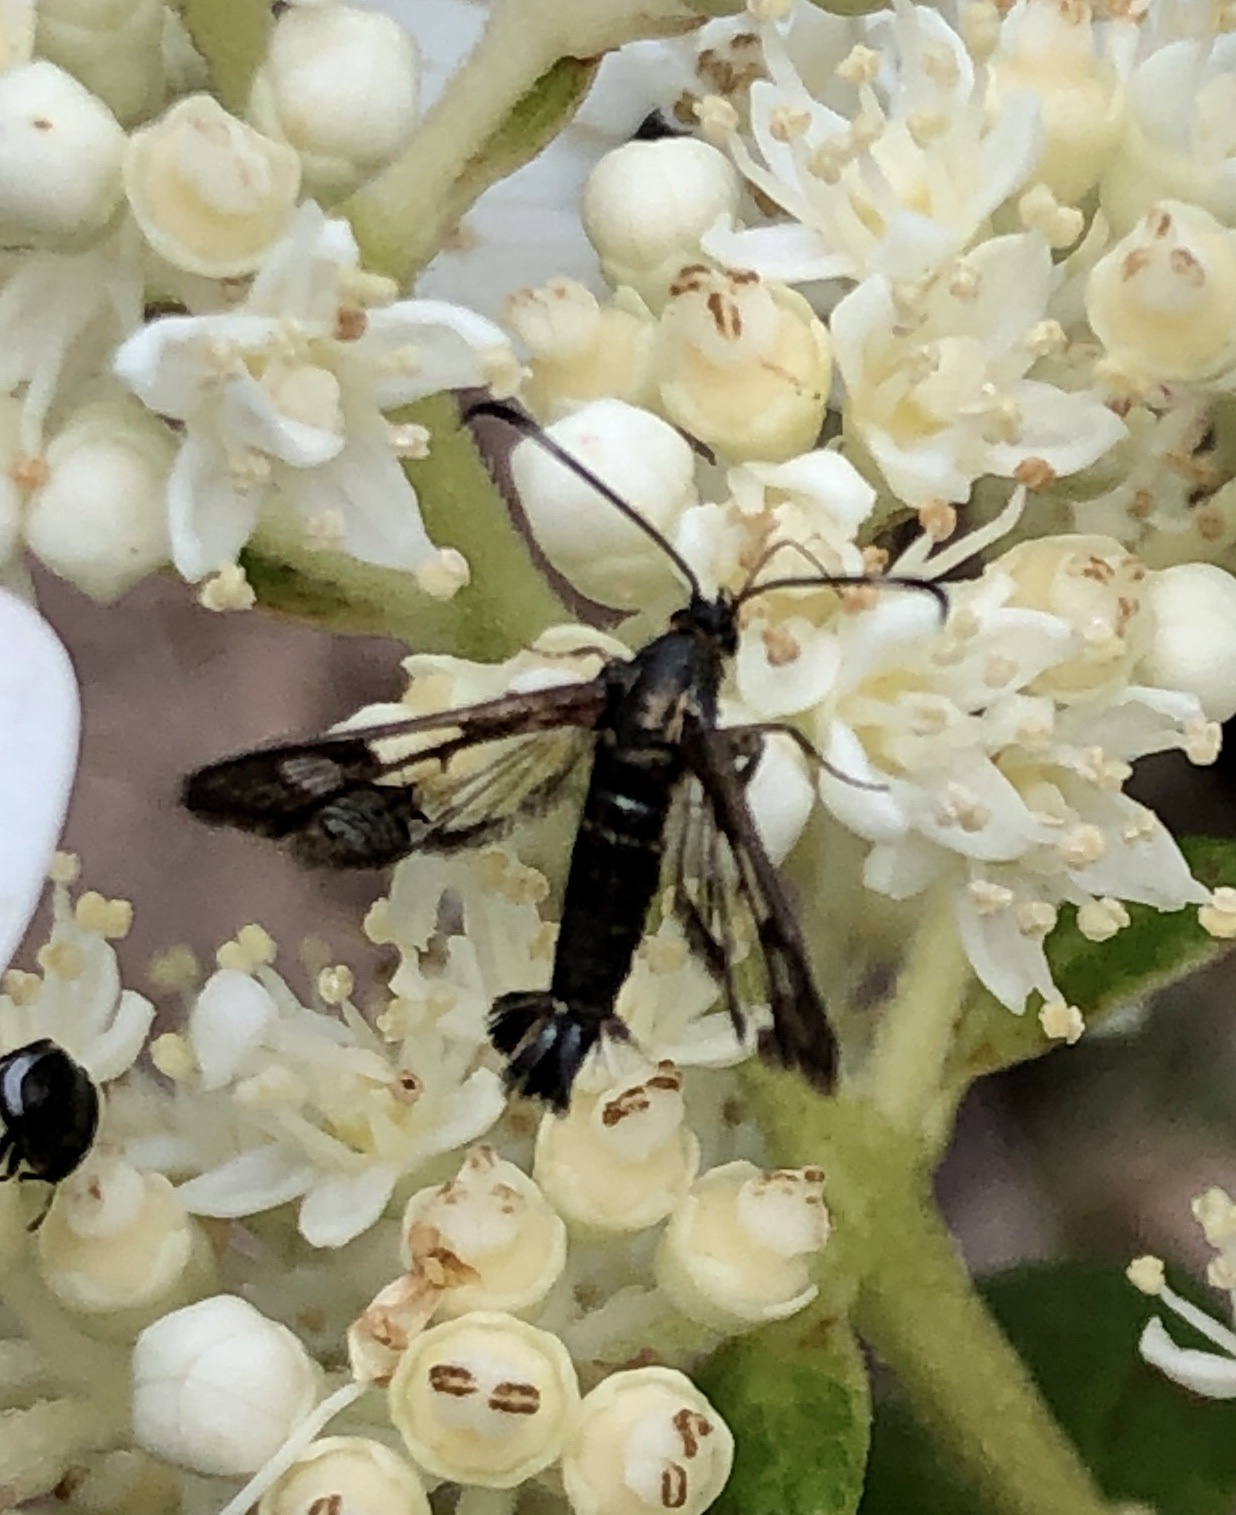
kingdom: Animalia
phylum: Arthropoda
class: Insecta
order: Lepidoptera
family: Sesiidae
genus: Synanthedon
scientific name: Synanthedon tipuliformis
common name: Currant clearwing
